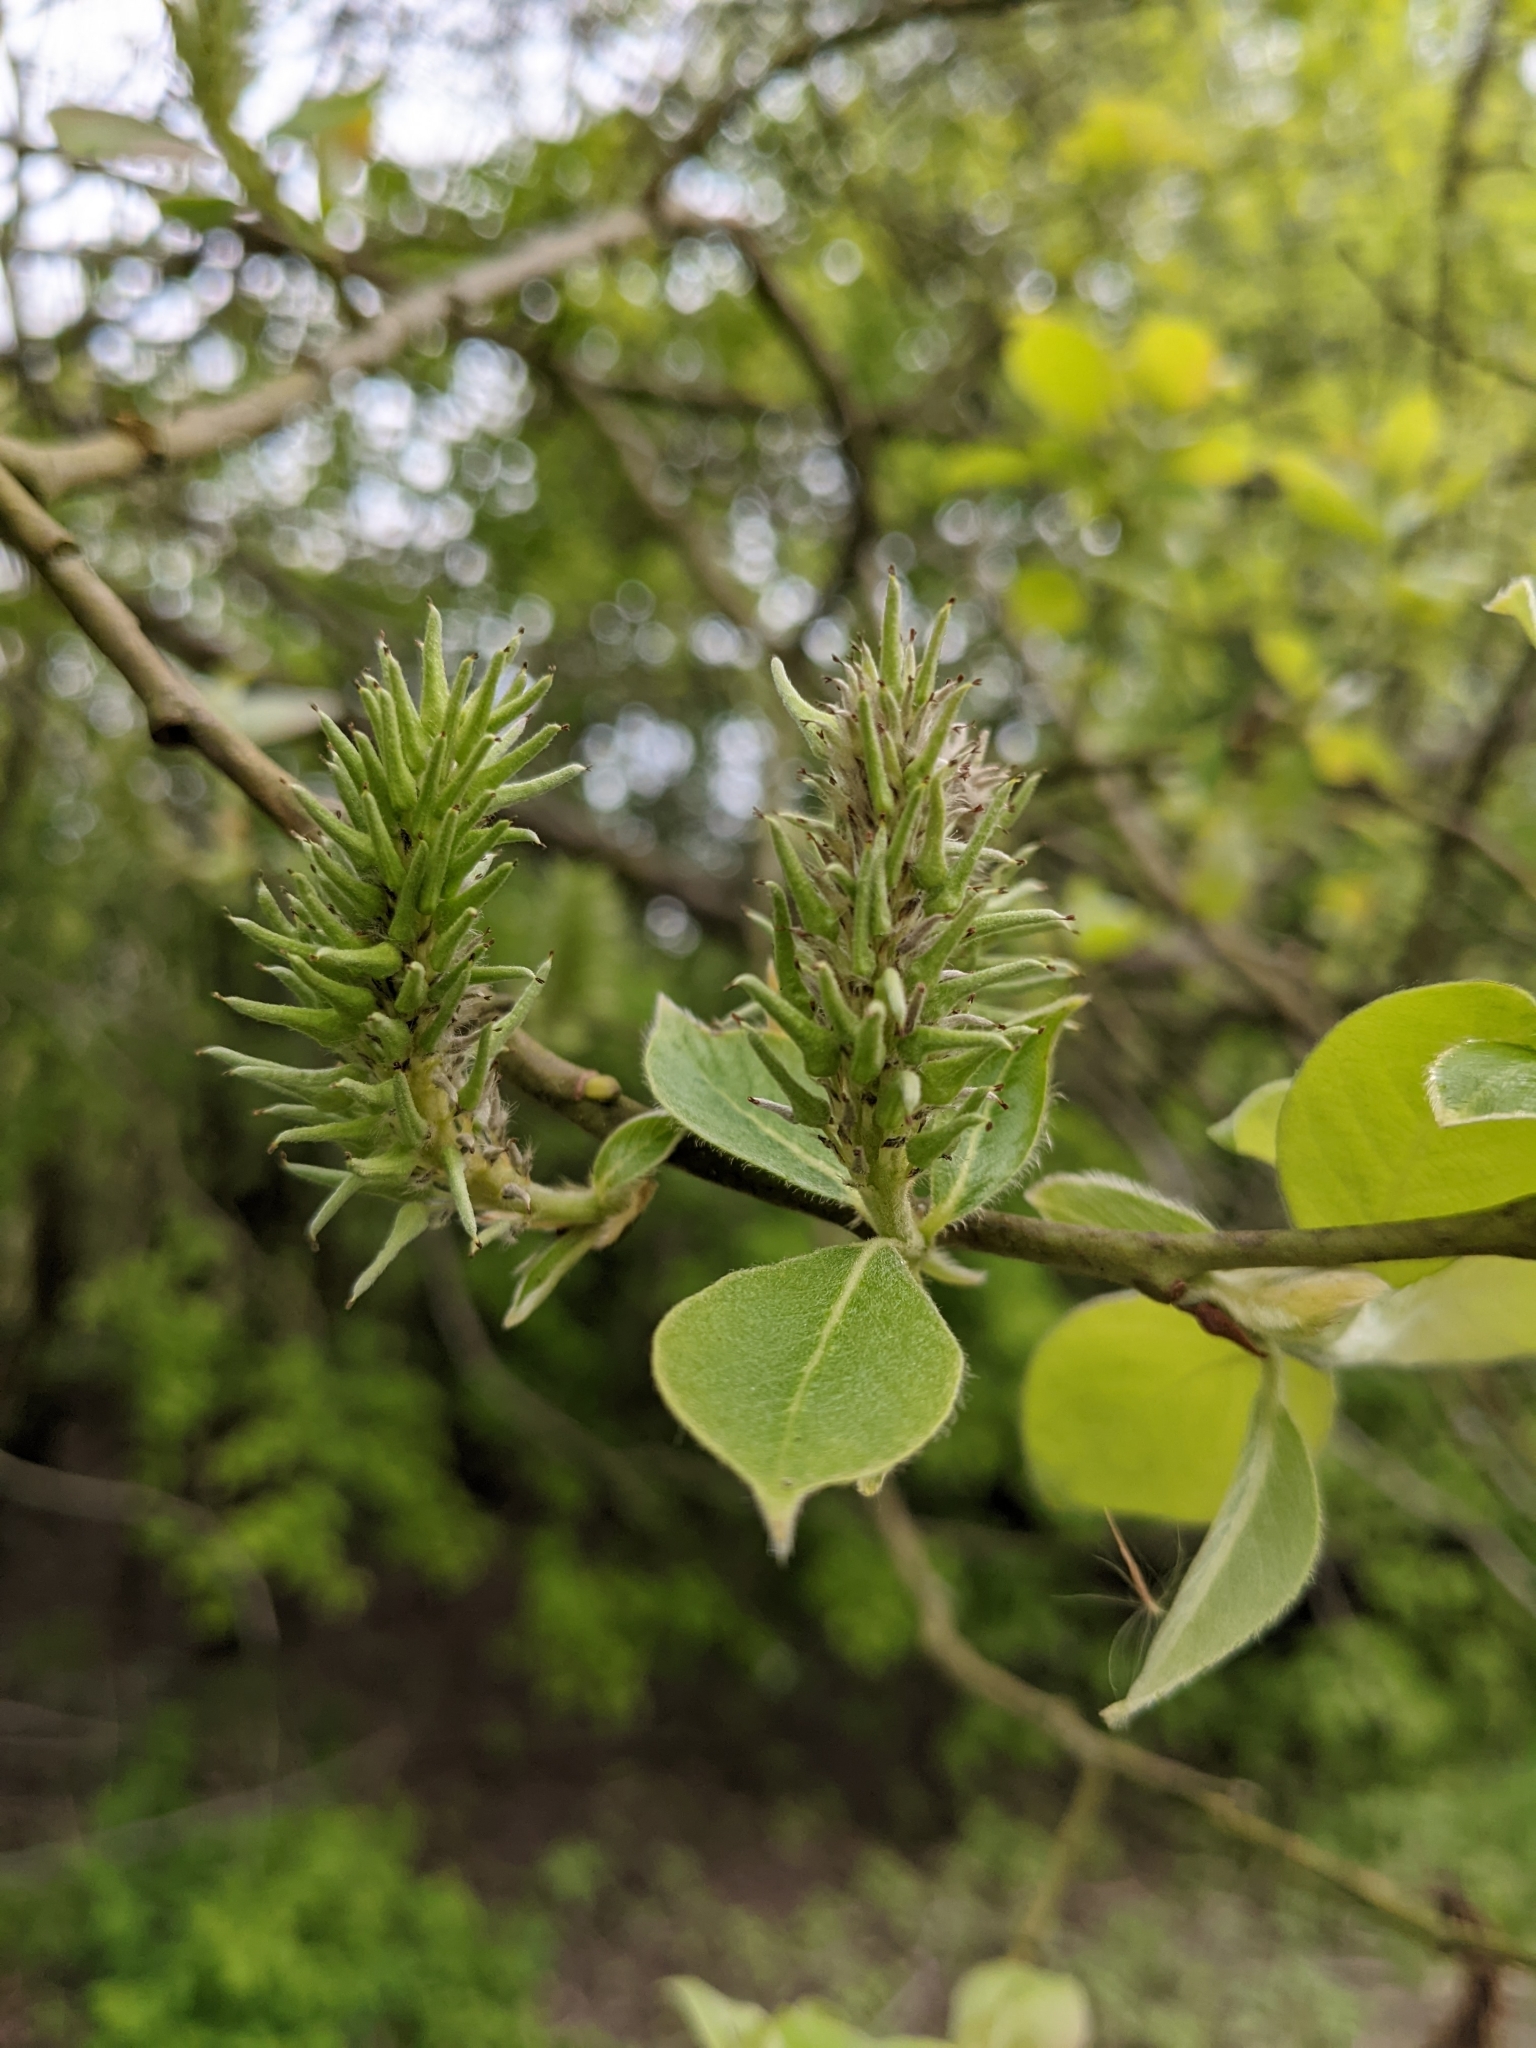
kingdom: Plantae
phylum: Tracheophyta
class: Magnoliopsida
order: Malpighiales
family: Salicaceae
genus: Salix
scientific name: Salix caprea
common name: Goat willow
